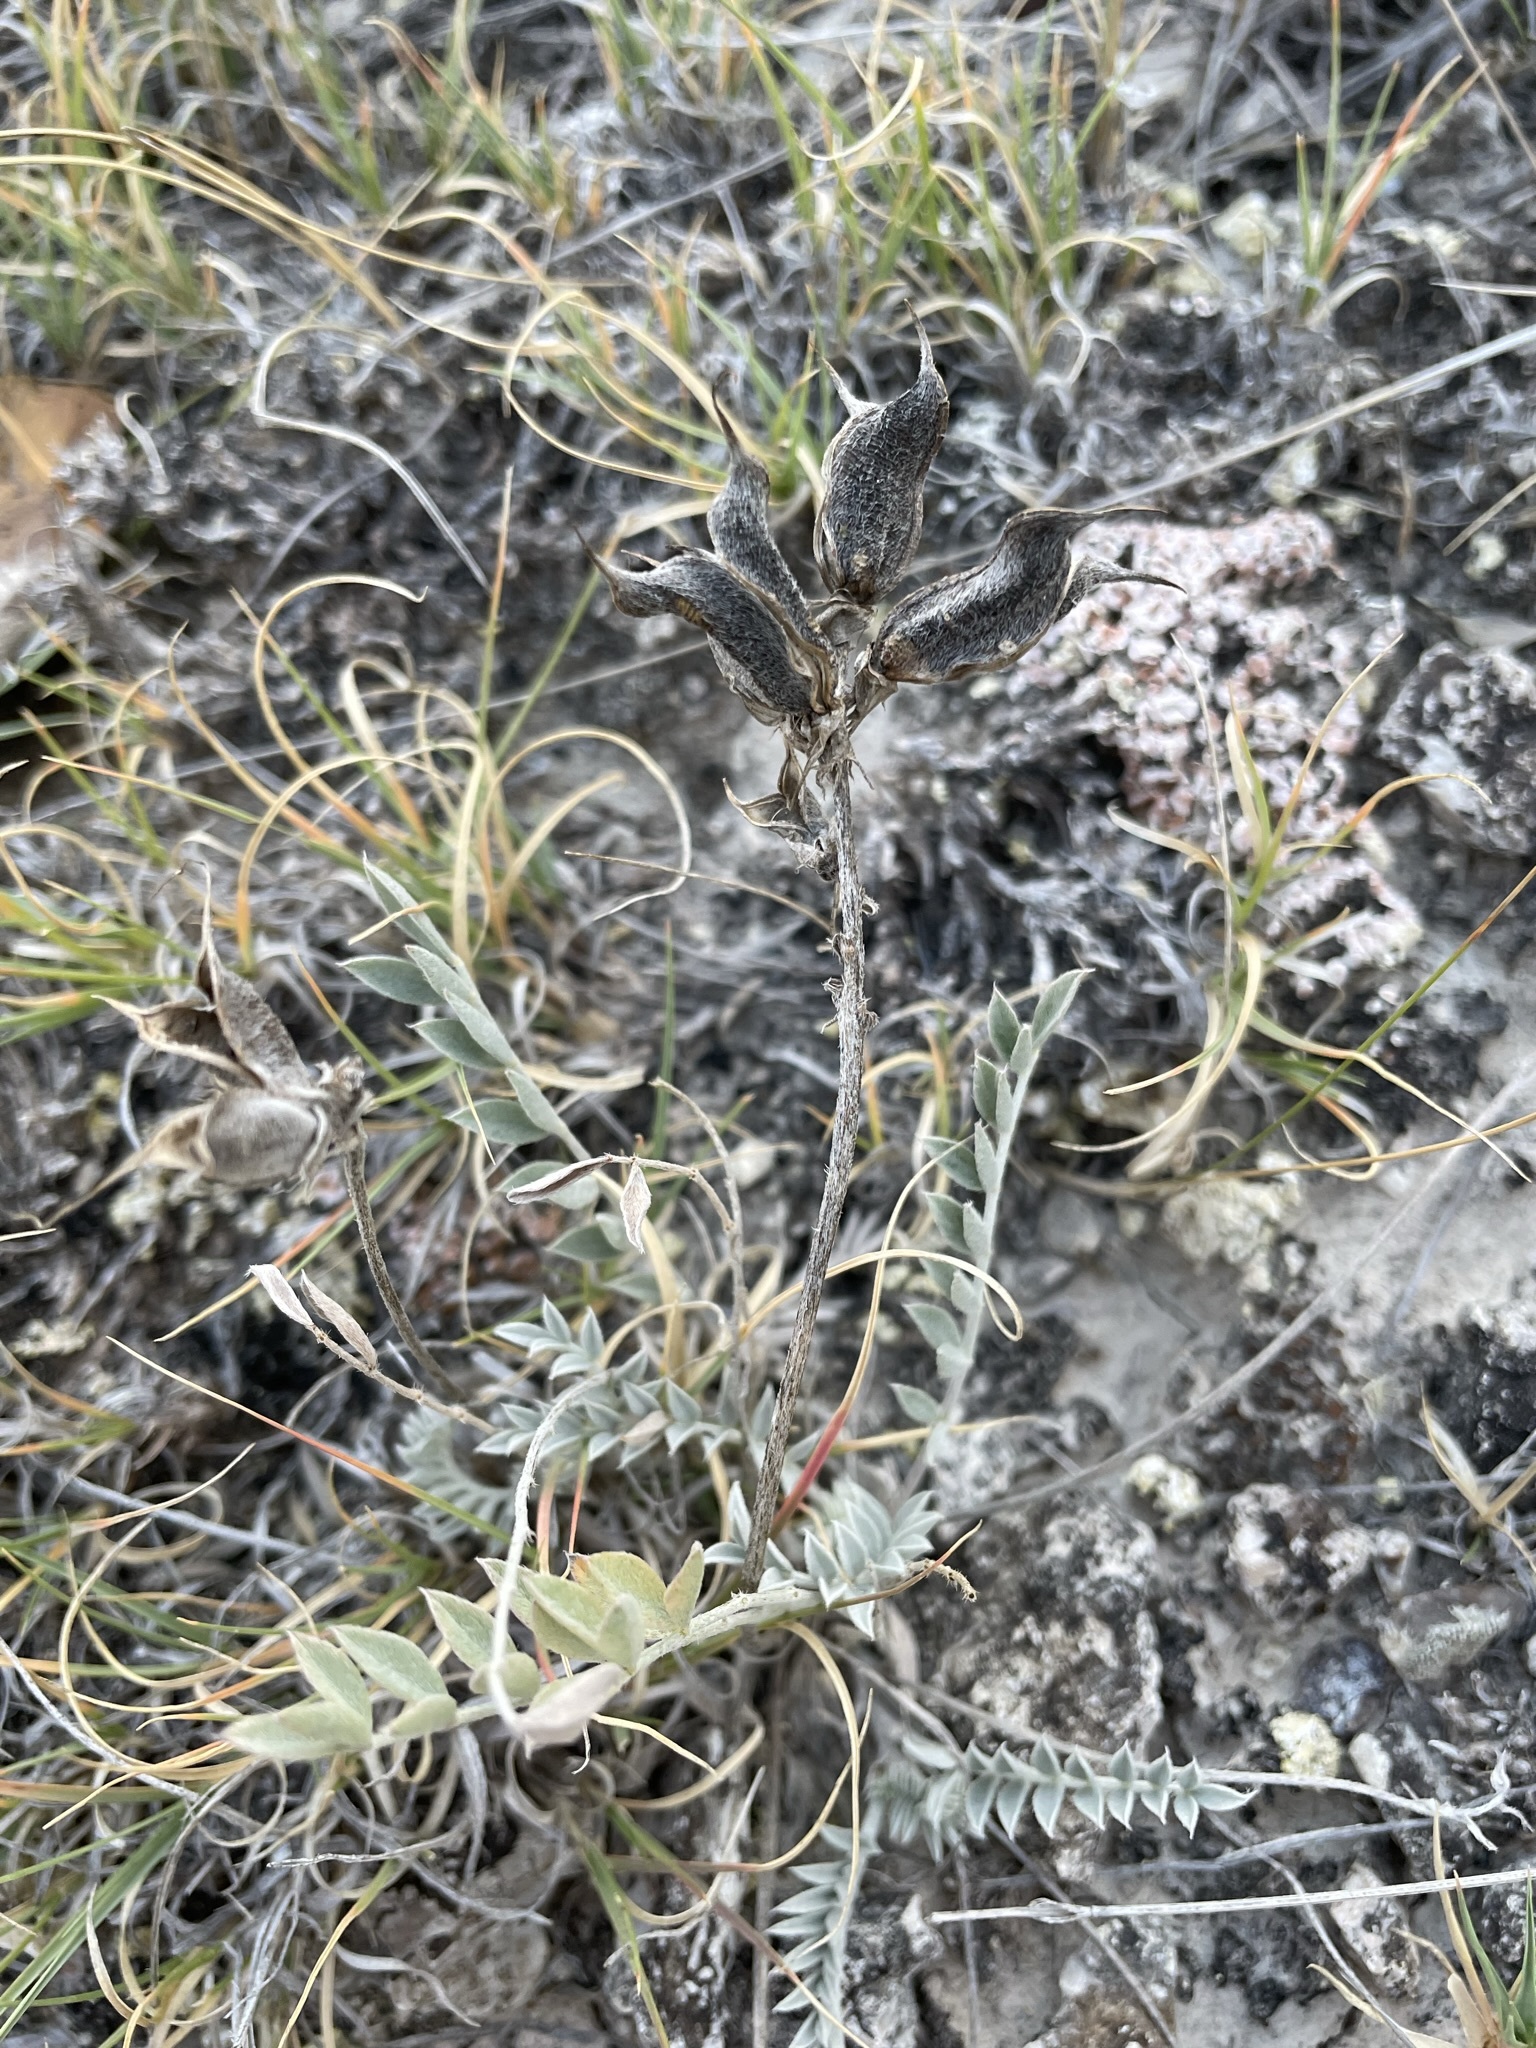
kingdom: Plantae
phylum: Tracheophyta
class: Magnoliopsida
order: Fabales
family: Fabaceae
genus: Astragalus
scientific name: Astragalus missouriensis
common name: Missouri milk-vetch
